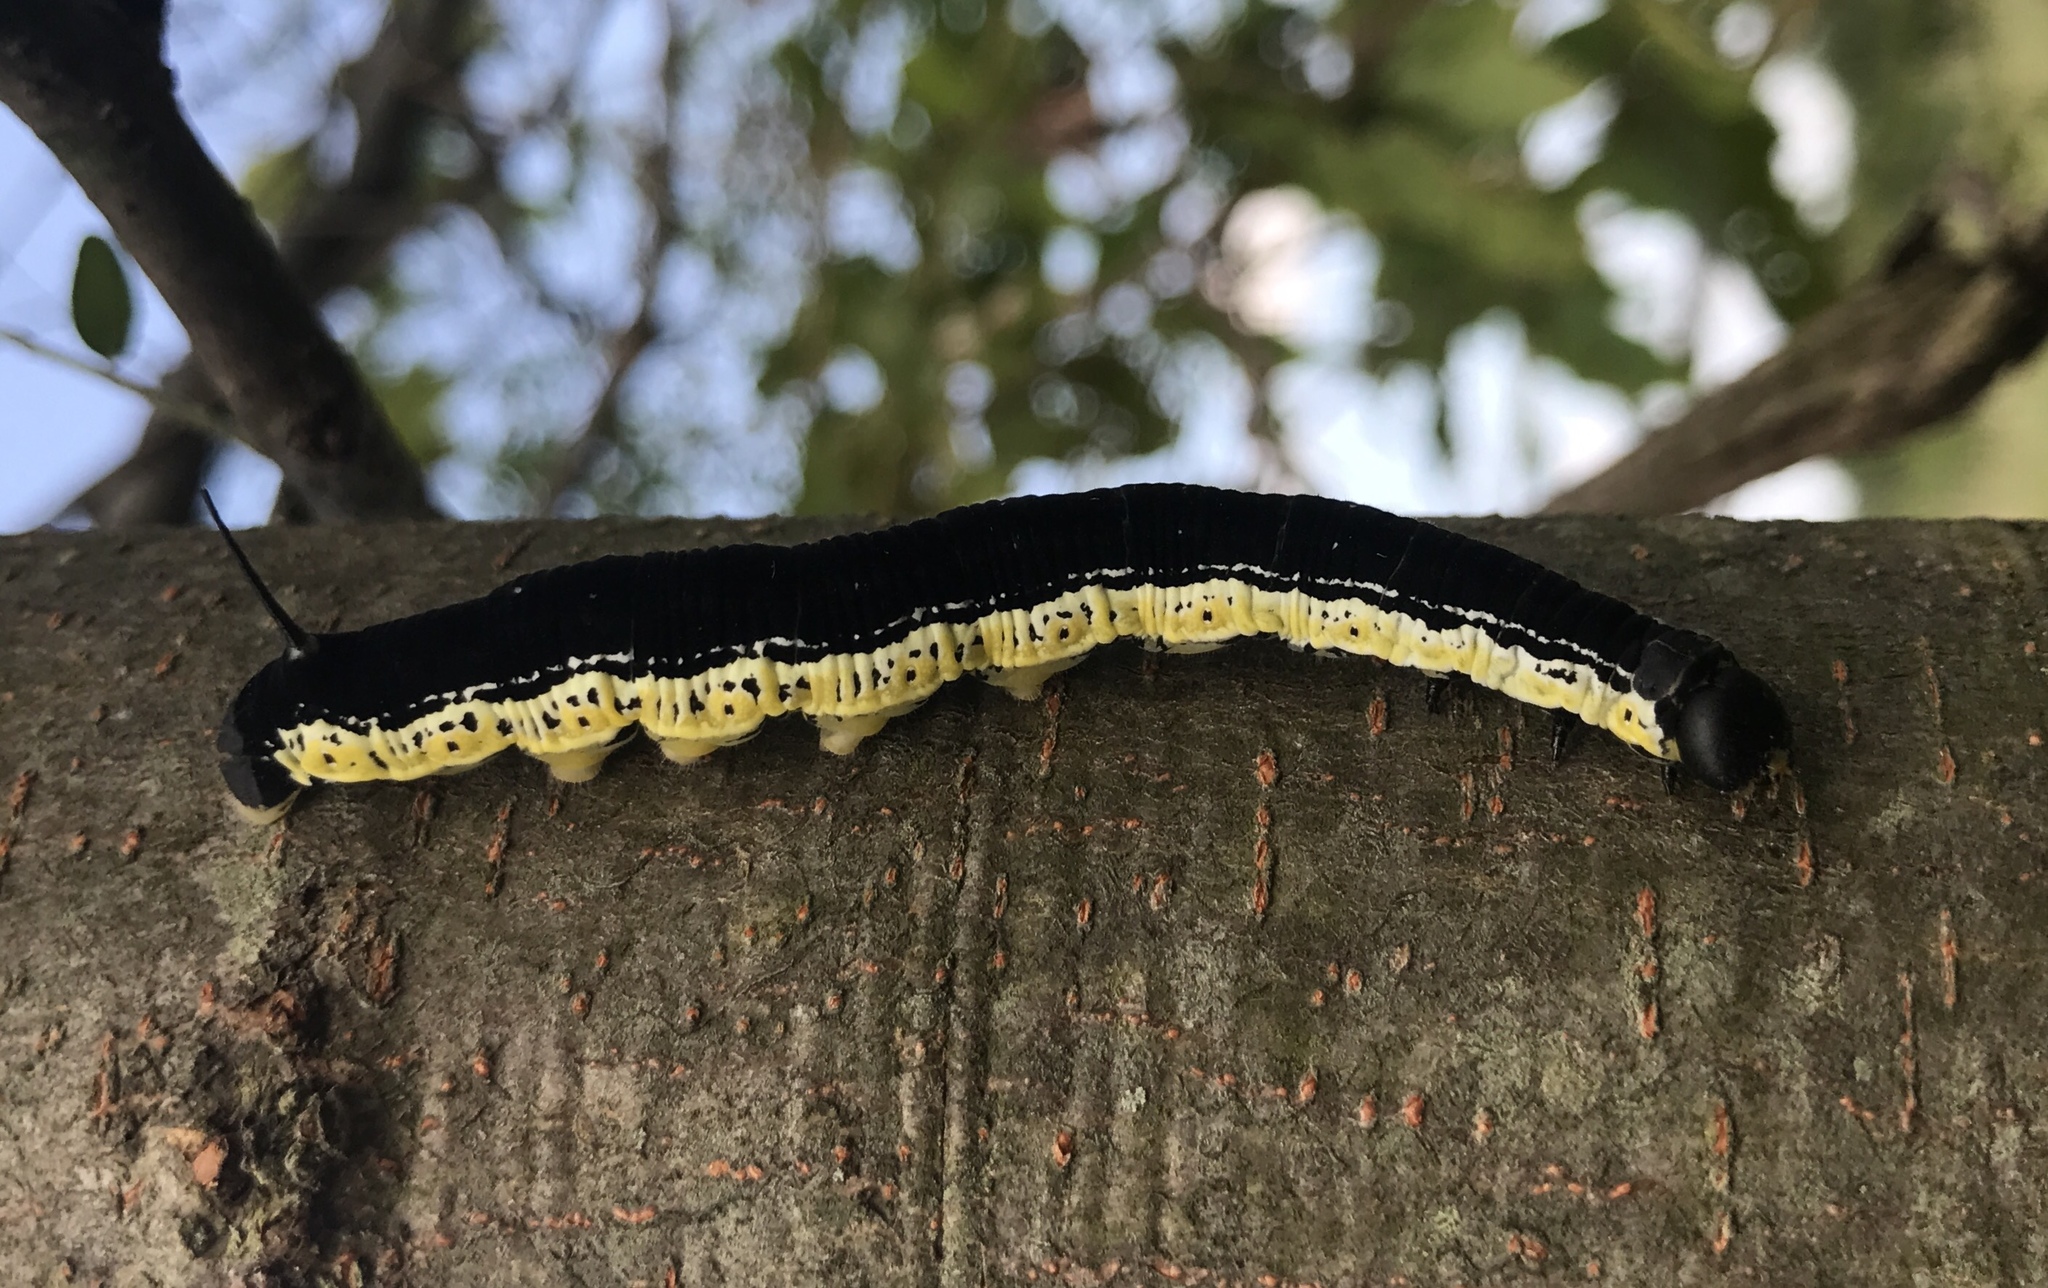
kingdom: Animalia
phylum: Arthropoda
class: Insecta
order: Lepidoptera
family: Sphingidae
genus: Ceratomia
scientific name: Ceratomia catalpae
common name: Catalpa hornworm
